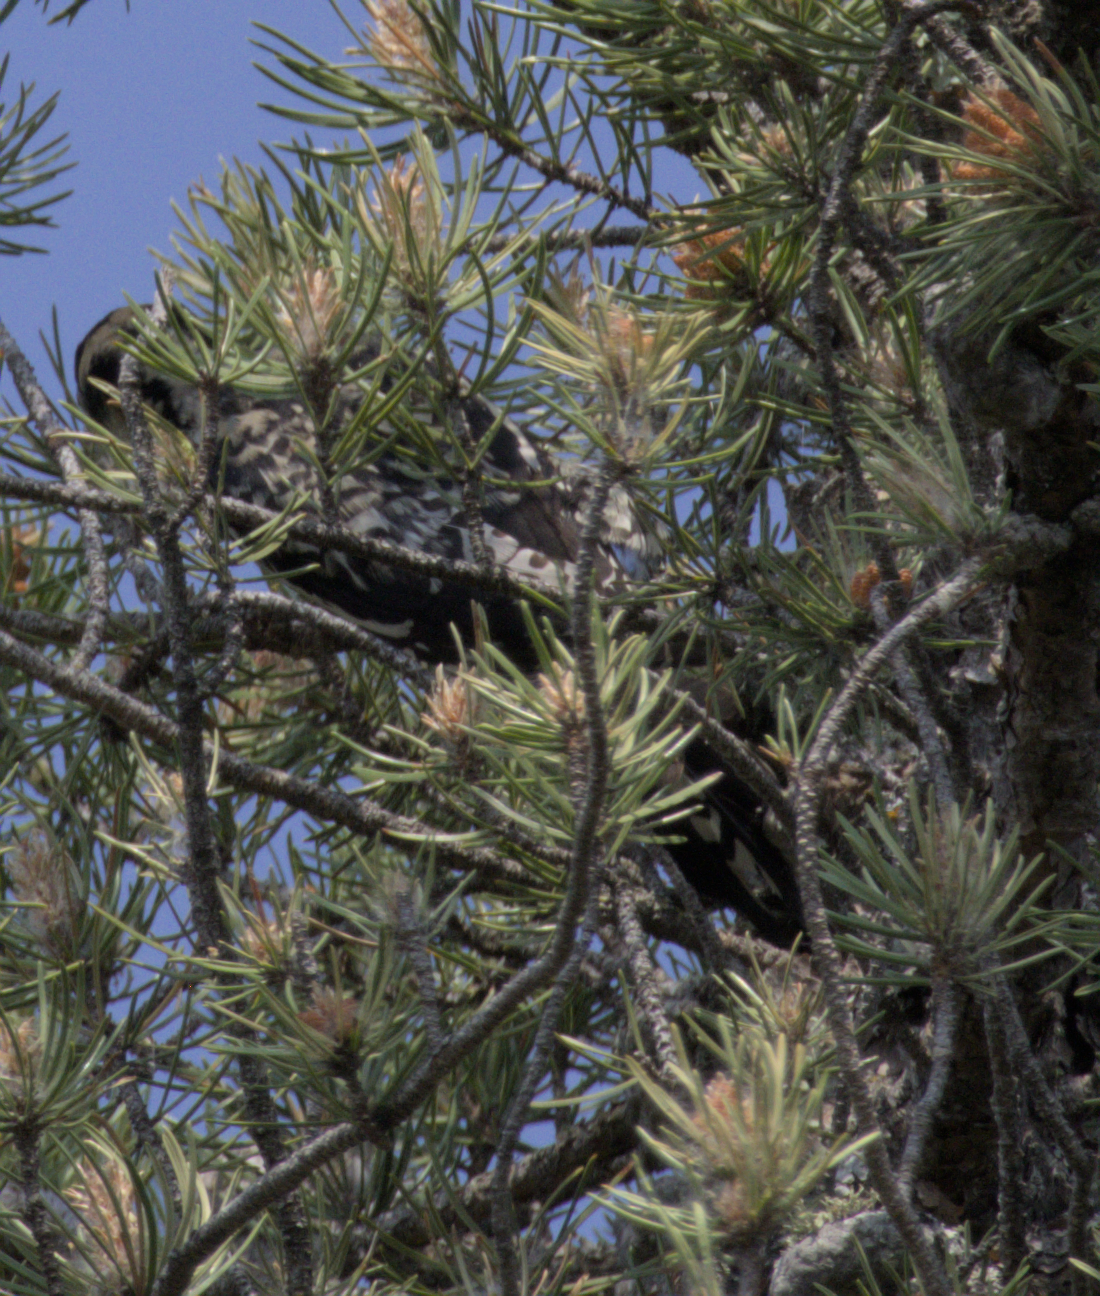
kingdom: Animalia
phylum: Chordata
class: Aves
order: Piciformes
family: Picidae
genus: Sphyrapicus
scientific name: Sphyrapicus varius
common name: Yellow-bellied sapsucker
